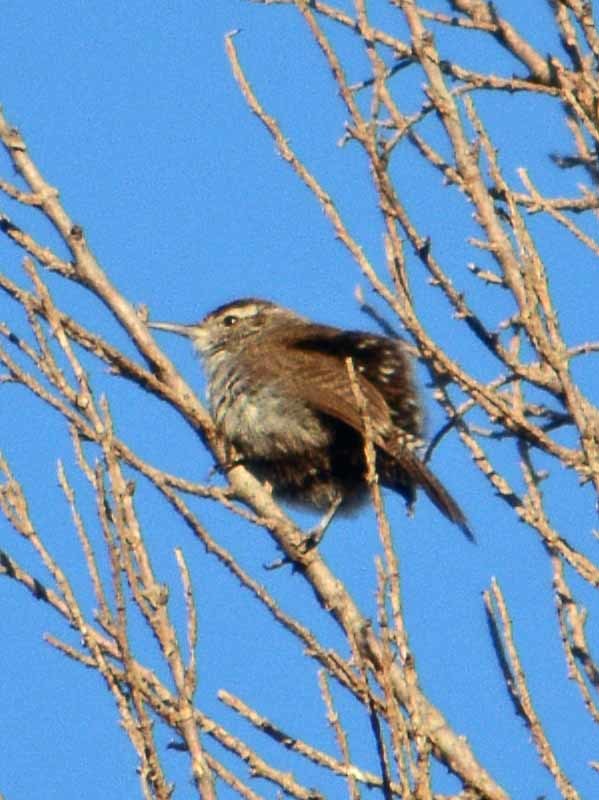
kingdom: Animalia
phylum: Chordata
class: Aves
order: Passeriformes
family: Troglodytidae
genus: Thryomanes
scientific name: Thryomanes bewickii
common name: Bewick's wren
